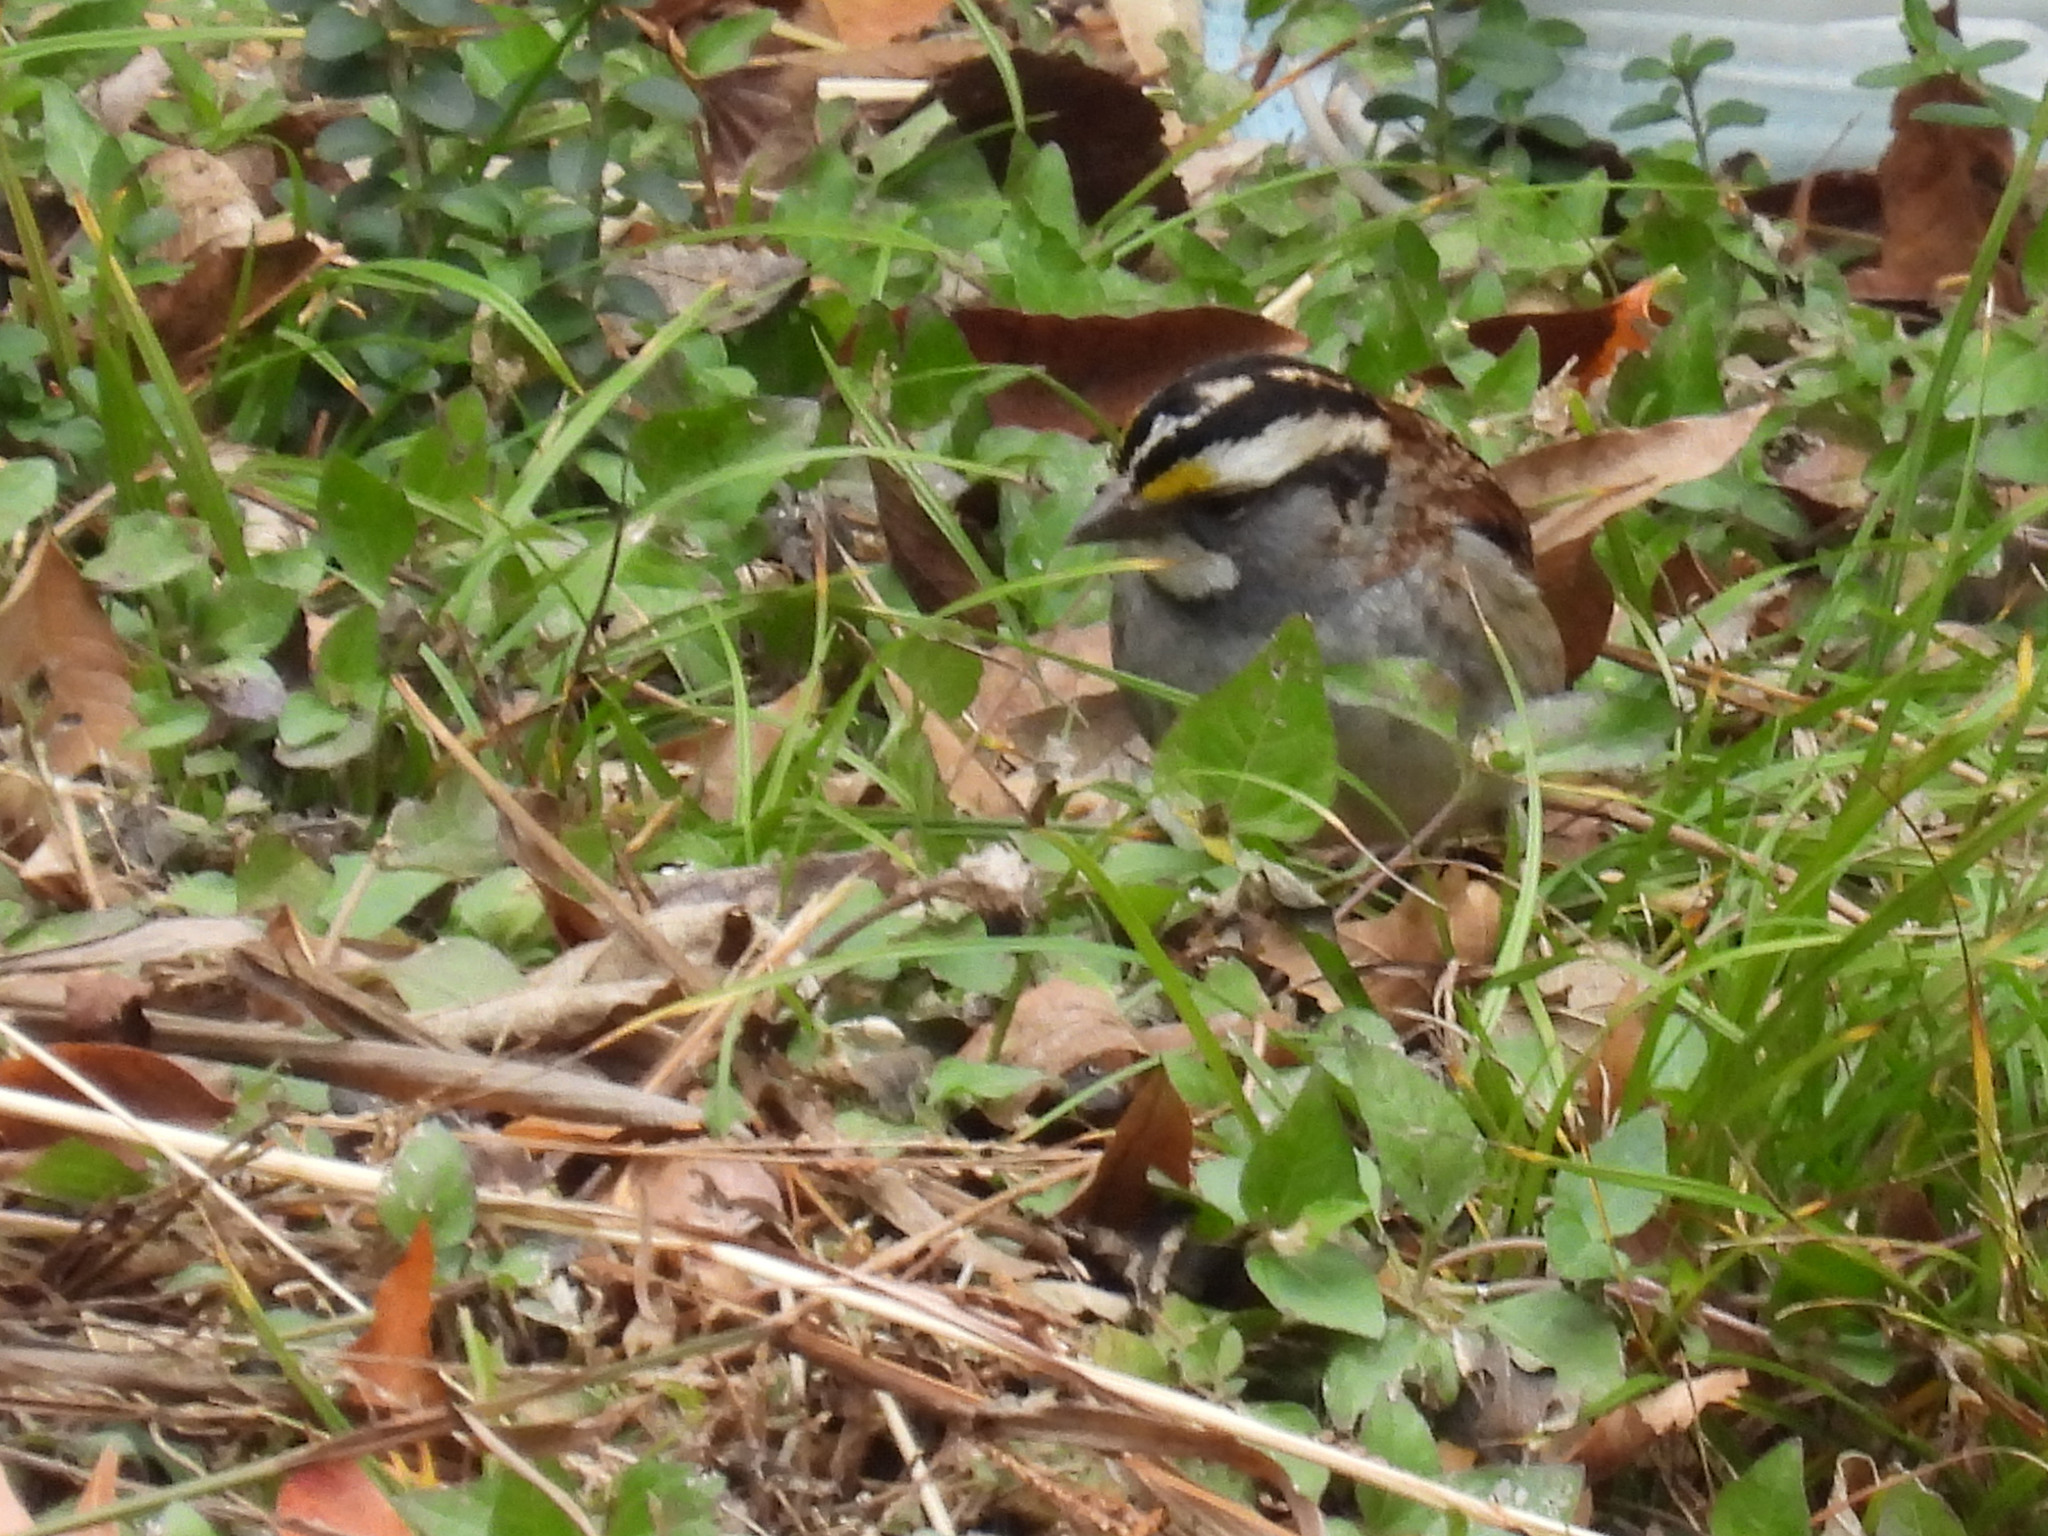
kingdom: Animalia
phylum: Chordata
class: Aves
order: Passeriformes
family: Passerellidae
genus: Zonotrichia
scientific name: Zonotrichia albicollis
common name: White-throated sparrow
